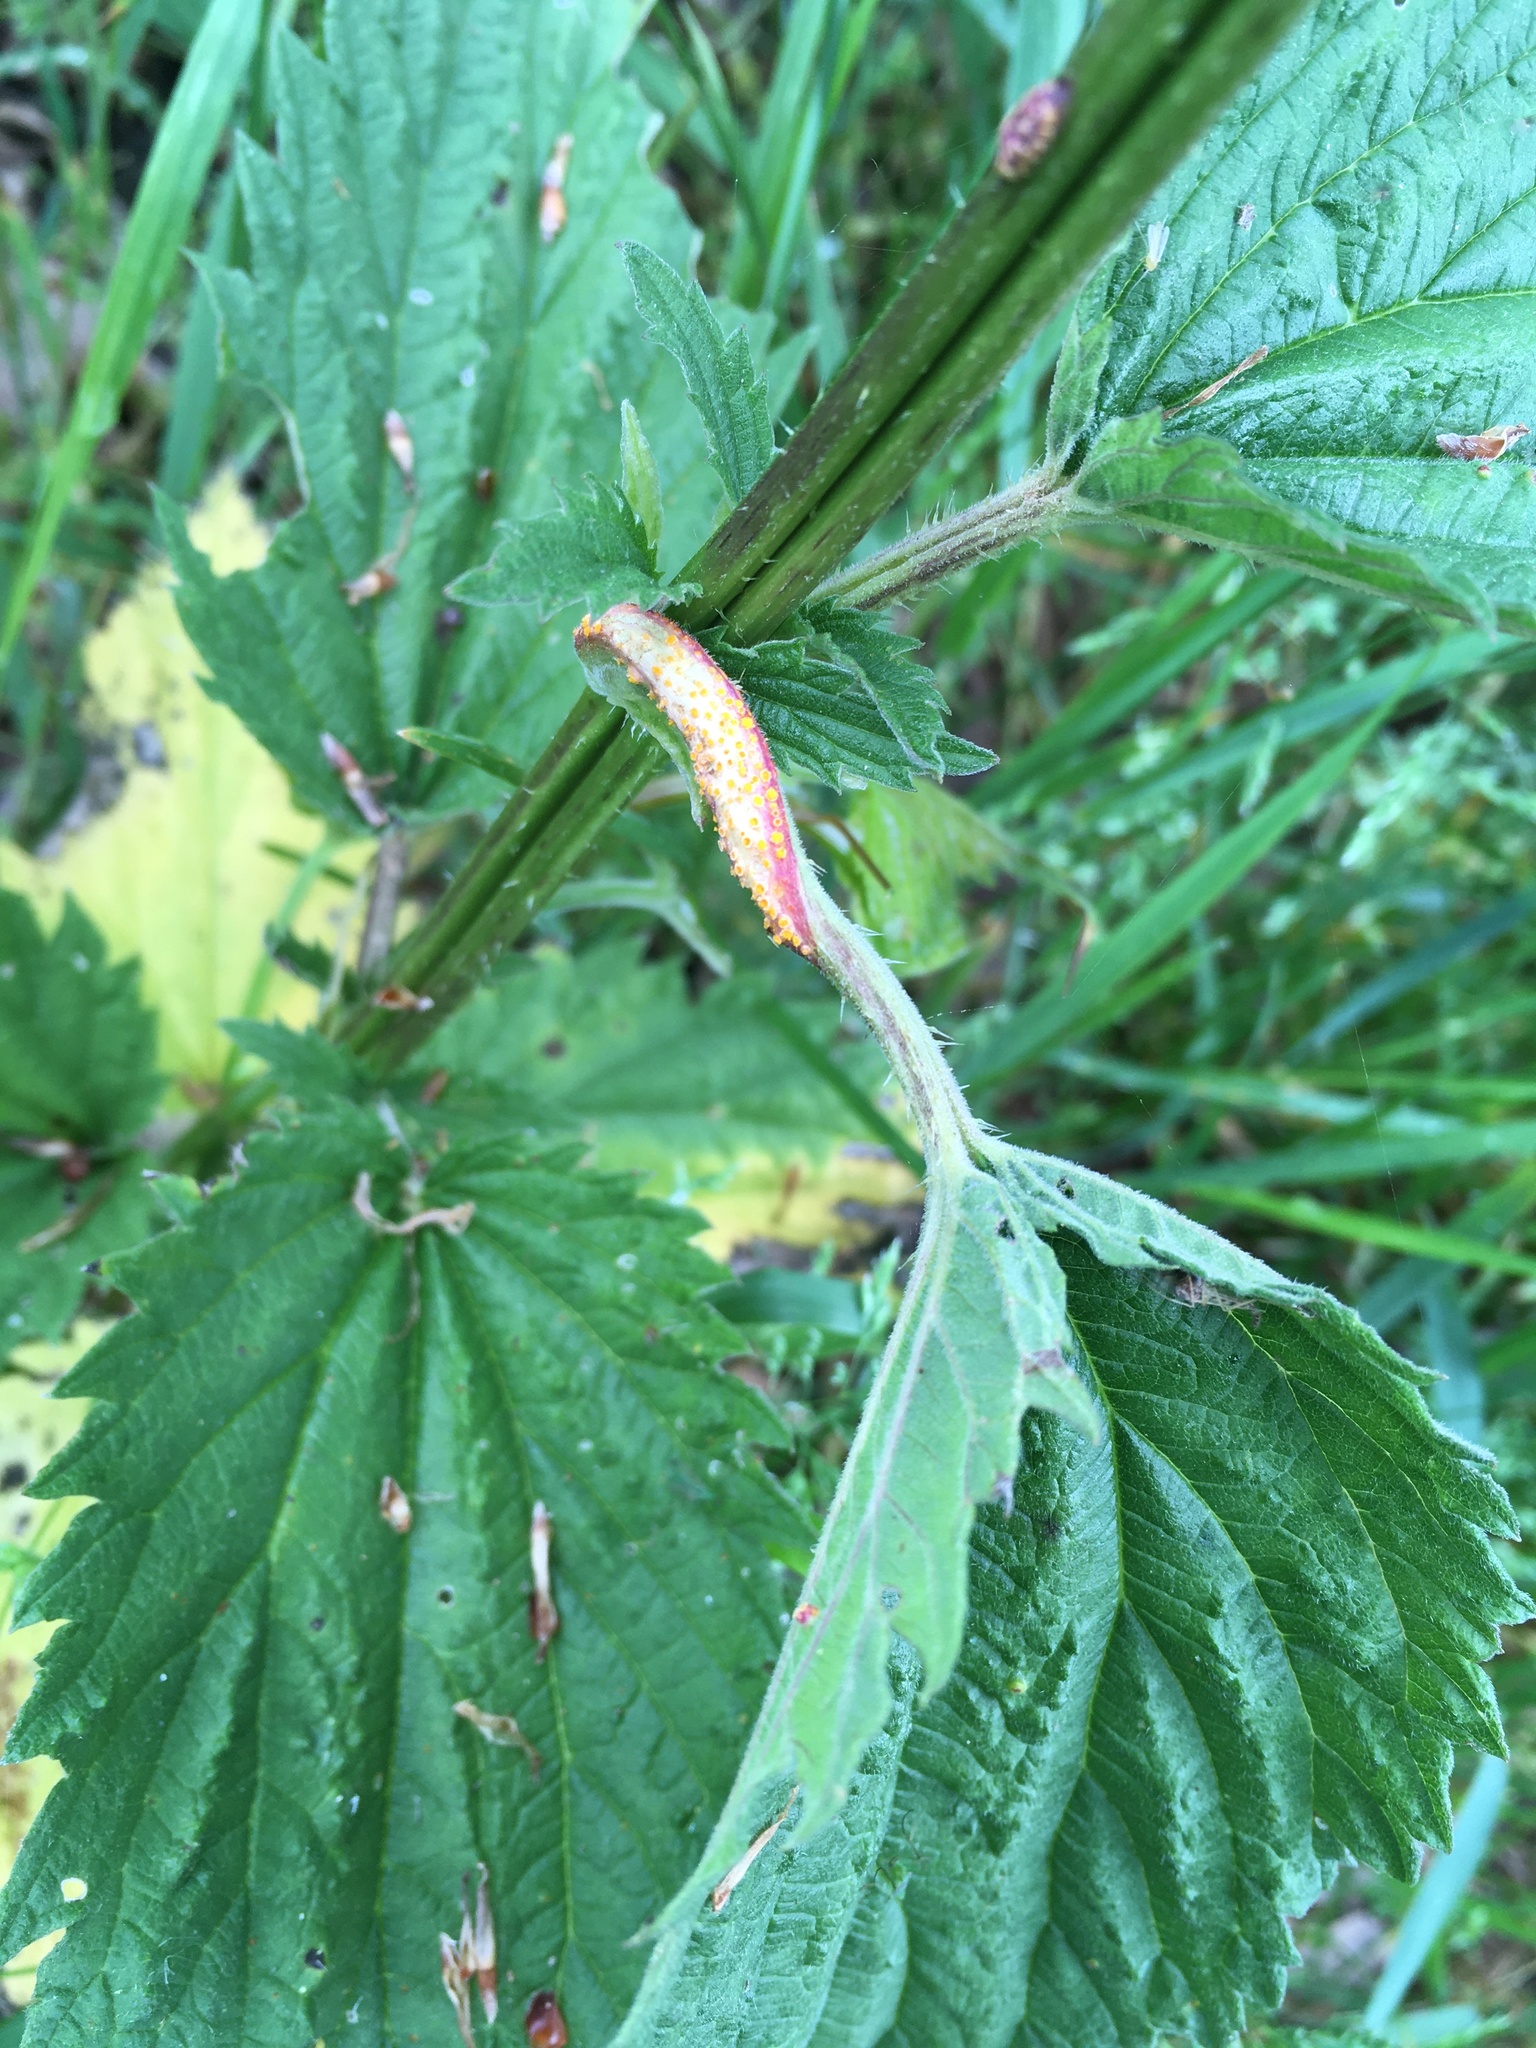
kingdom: Fungi
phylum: Basidiomycota
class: Pucciniomycetes
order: Pucciniales
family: Pucciniaceae
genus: Puccinia
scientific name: Puccinia urticata
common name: Nettle clustercup rust fungus
